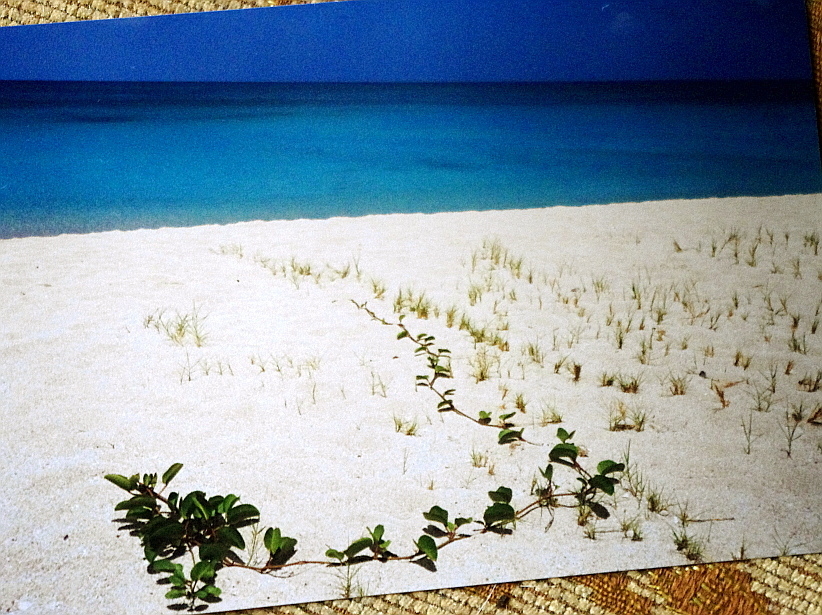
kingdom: Plantae
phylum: Tracheophyta
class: Magnoliopsida
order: Solanales
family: Convolvulaceae
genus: Ipomoea
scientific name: Ipomoea pes-caprae
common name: Beach morning glory
